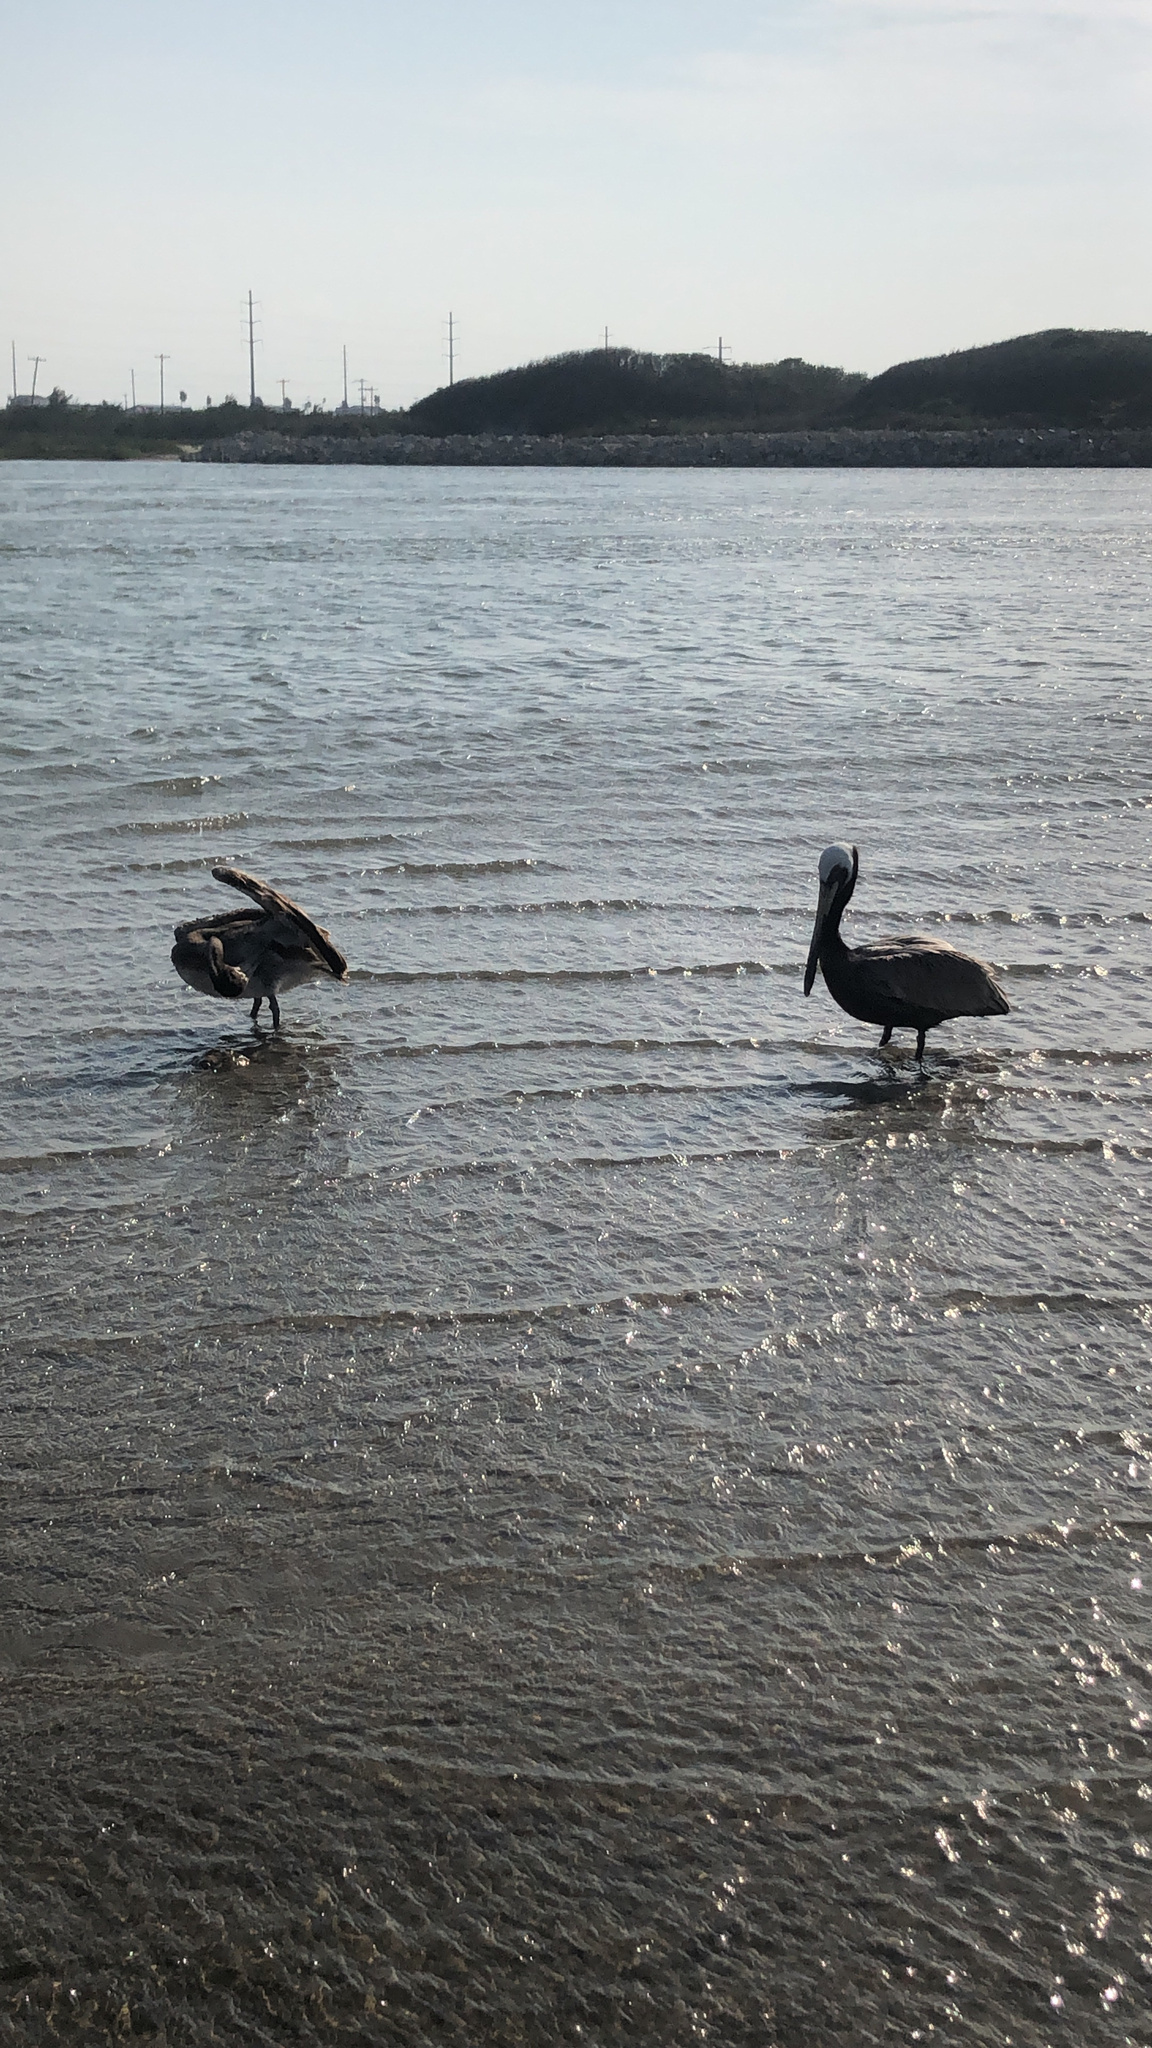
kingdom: Animalia
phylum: Chordata
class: Aves
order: Pelecaniformes
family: Pelecanidae
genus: Pelecanus
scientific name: Pelecanus occidentalis
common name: Brown pelican
